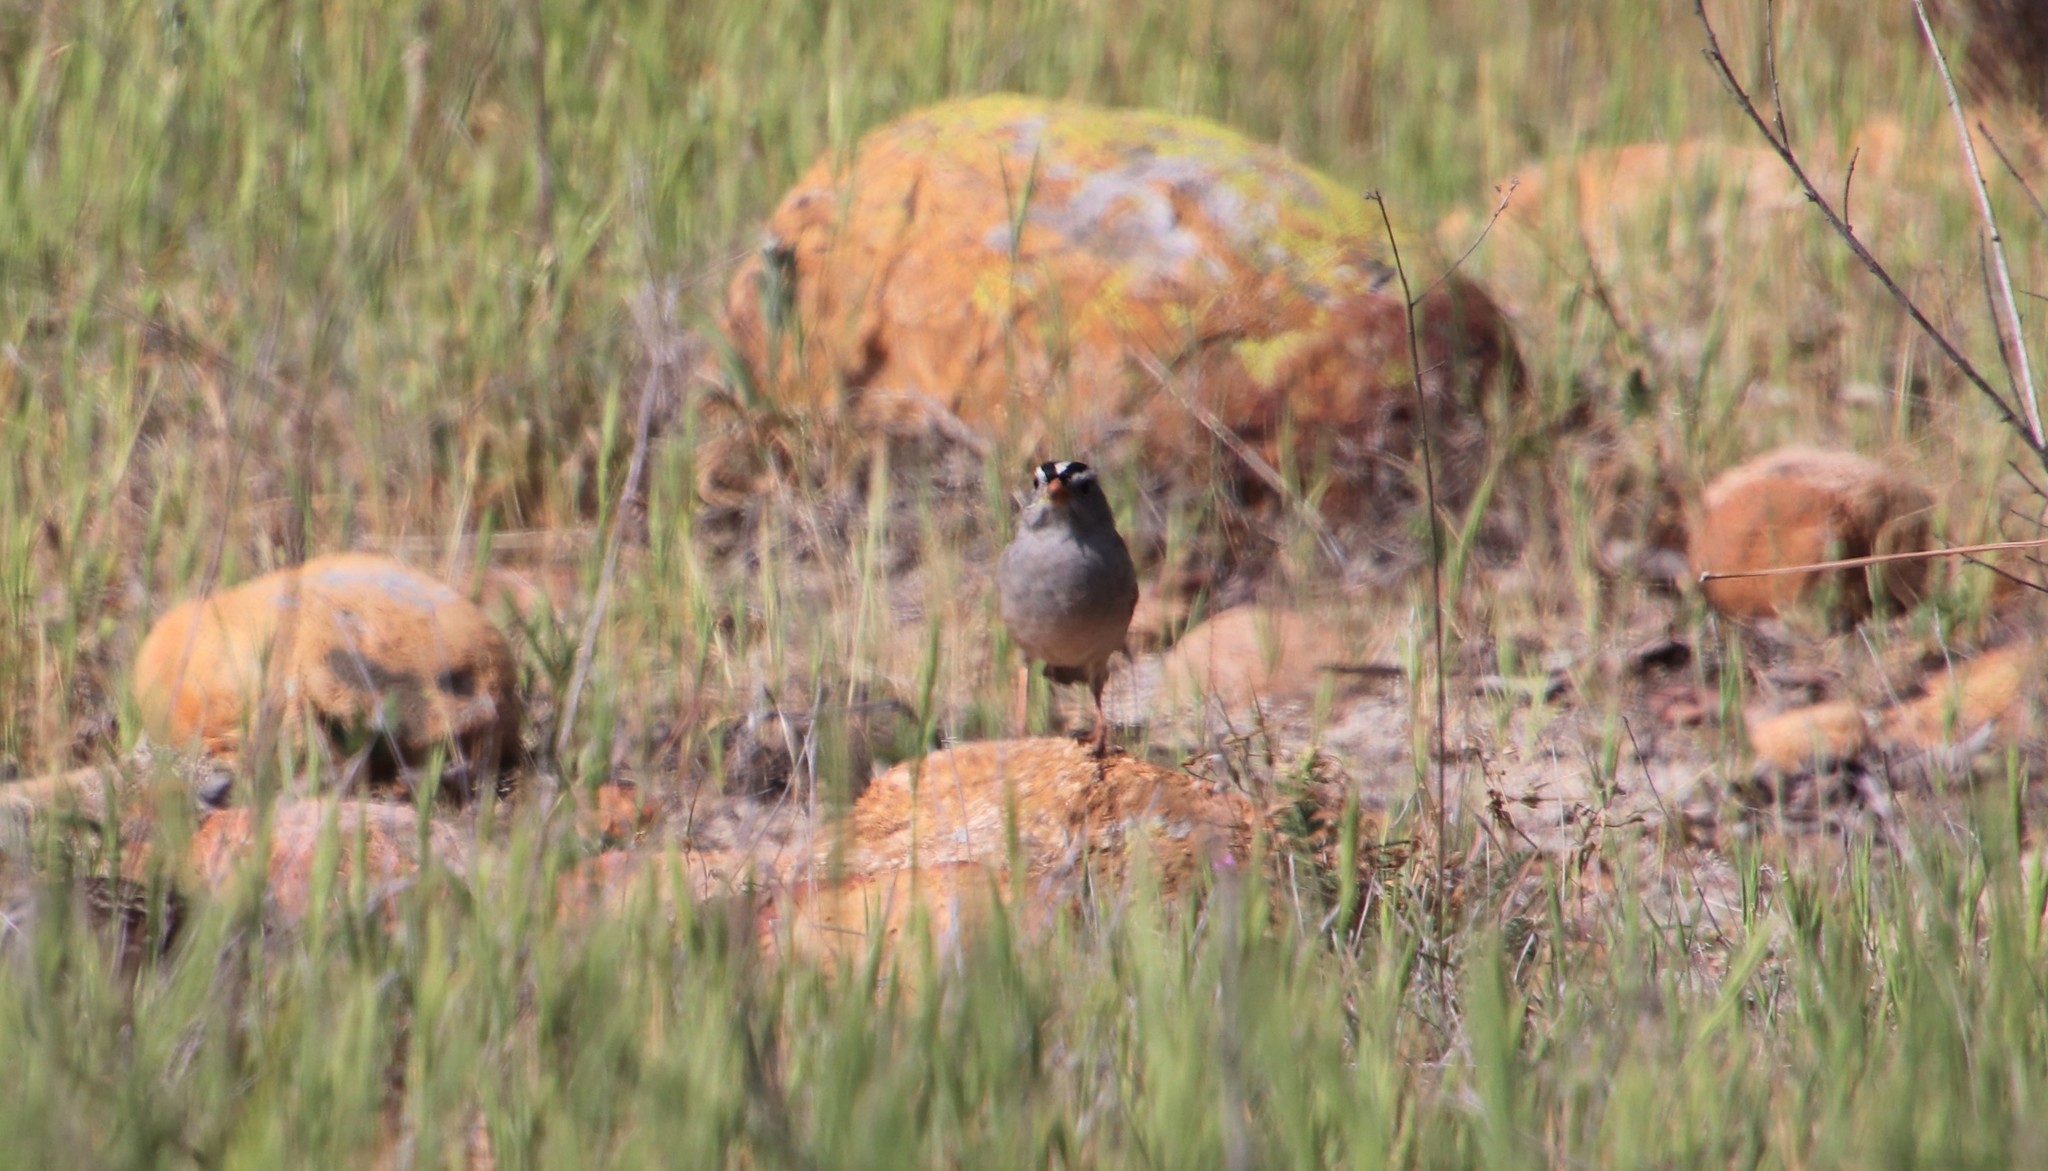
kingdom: Animalia
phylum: Chordata
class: Aves
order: Passeriformes
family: Passerellidae
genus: Zonotrichia
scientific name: Zonotrichia leucophrys
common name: White-crowned sparrow
